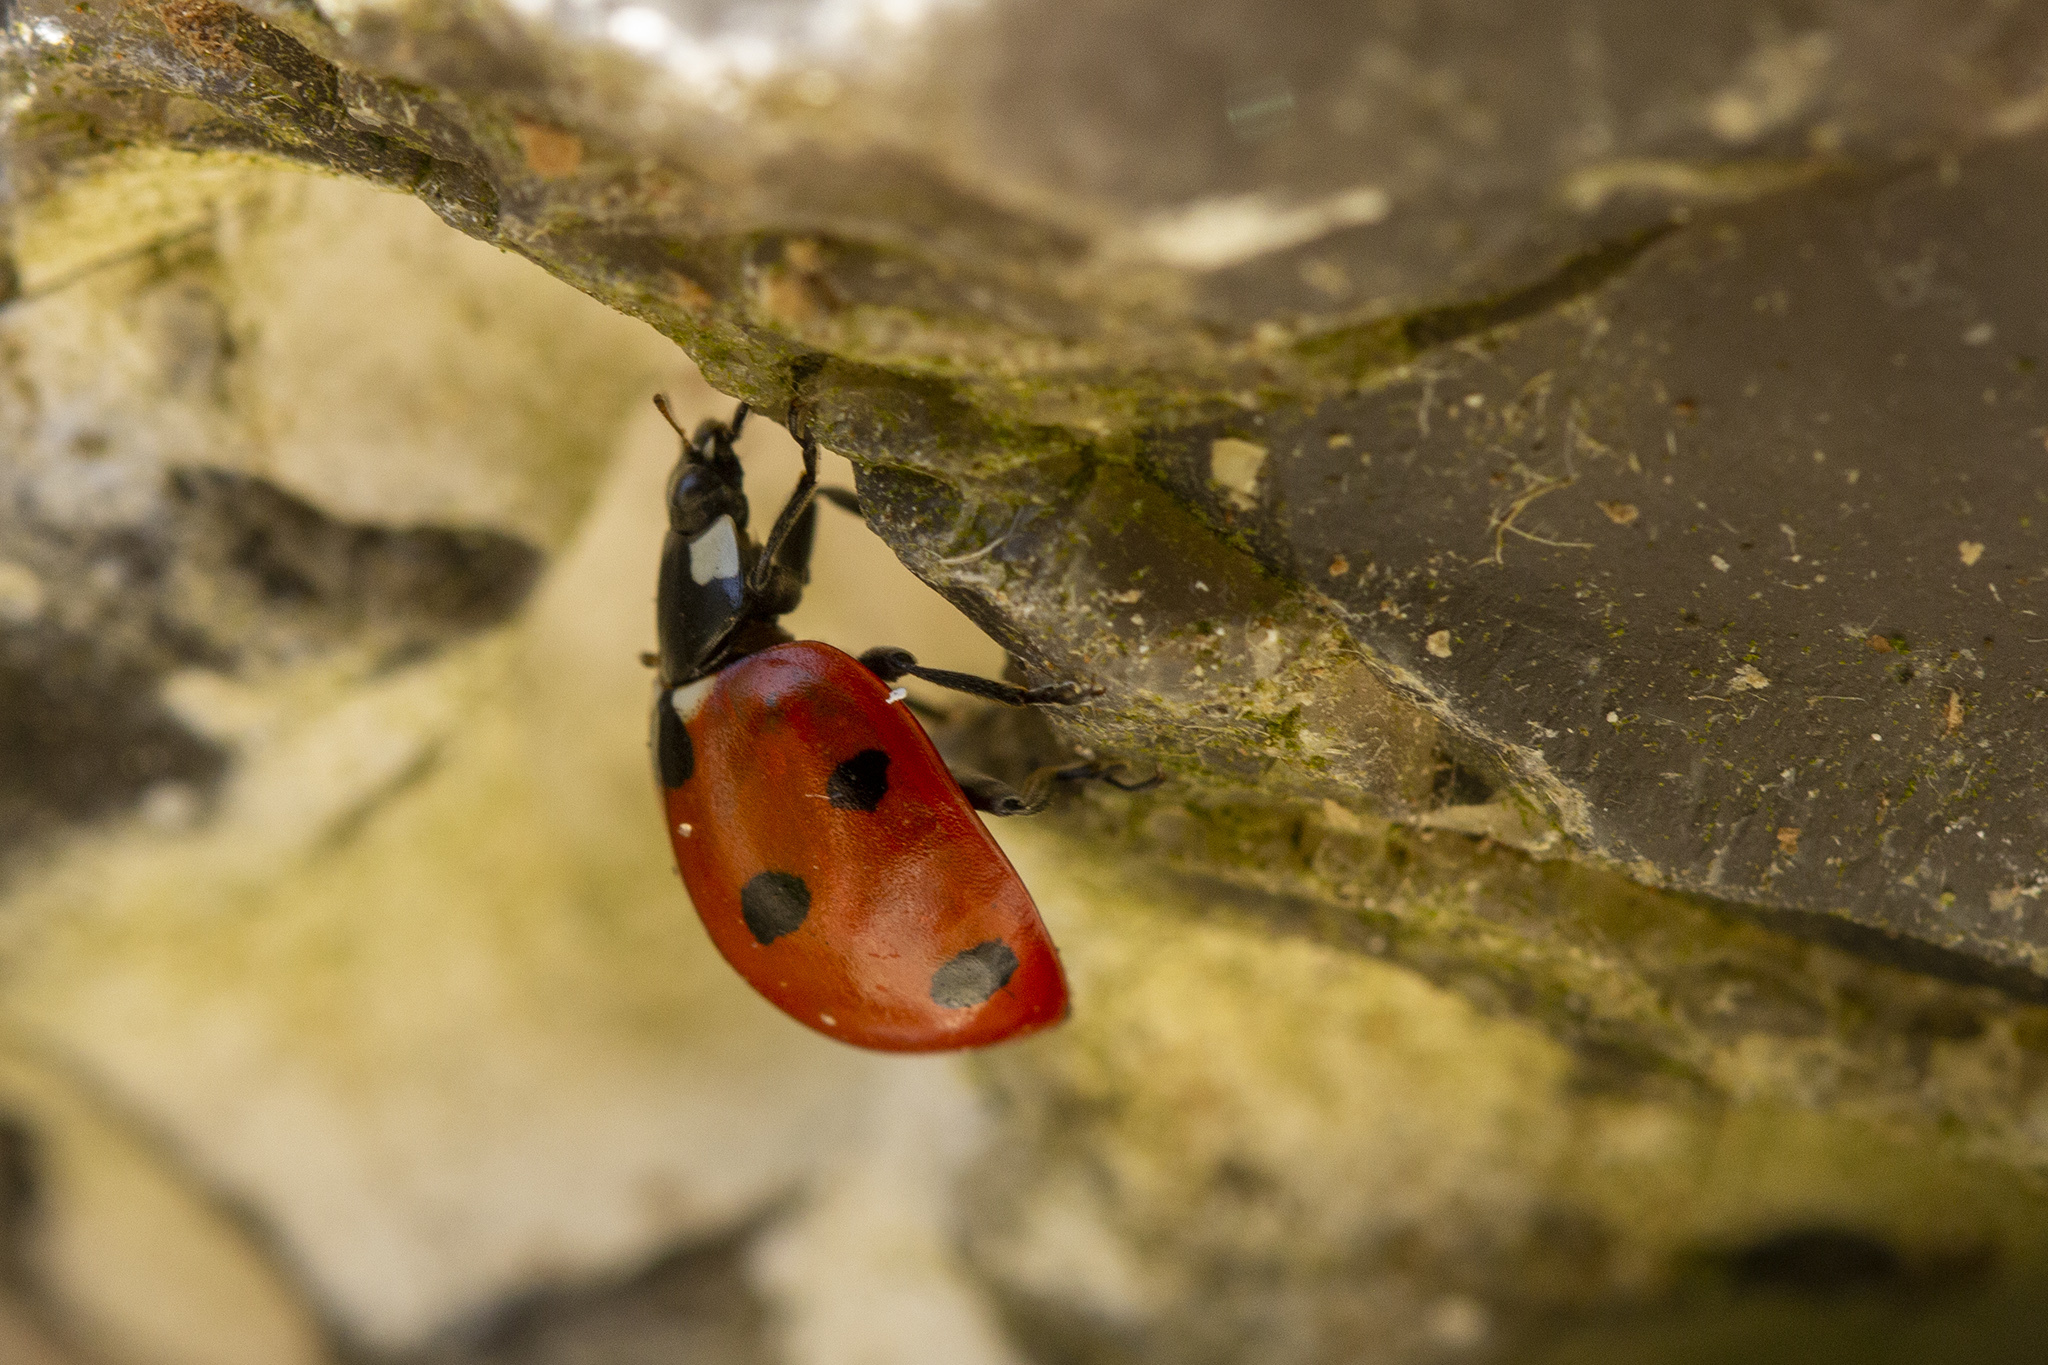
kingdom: Animalia
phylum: Arthropoda
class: Insecta
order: Coleoptera
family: Coccinellidae
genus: Coccinella
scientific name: Coccinella septempunctata
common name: Sevenspotted lady beetle
